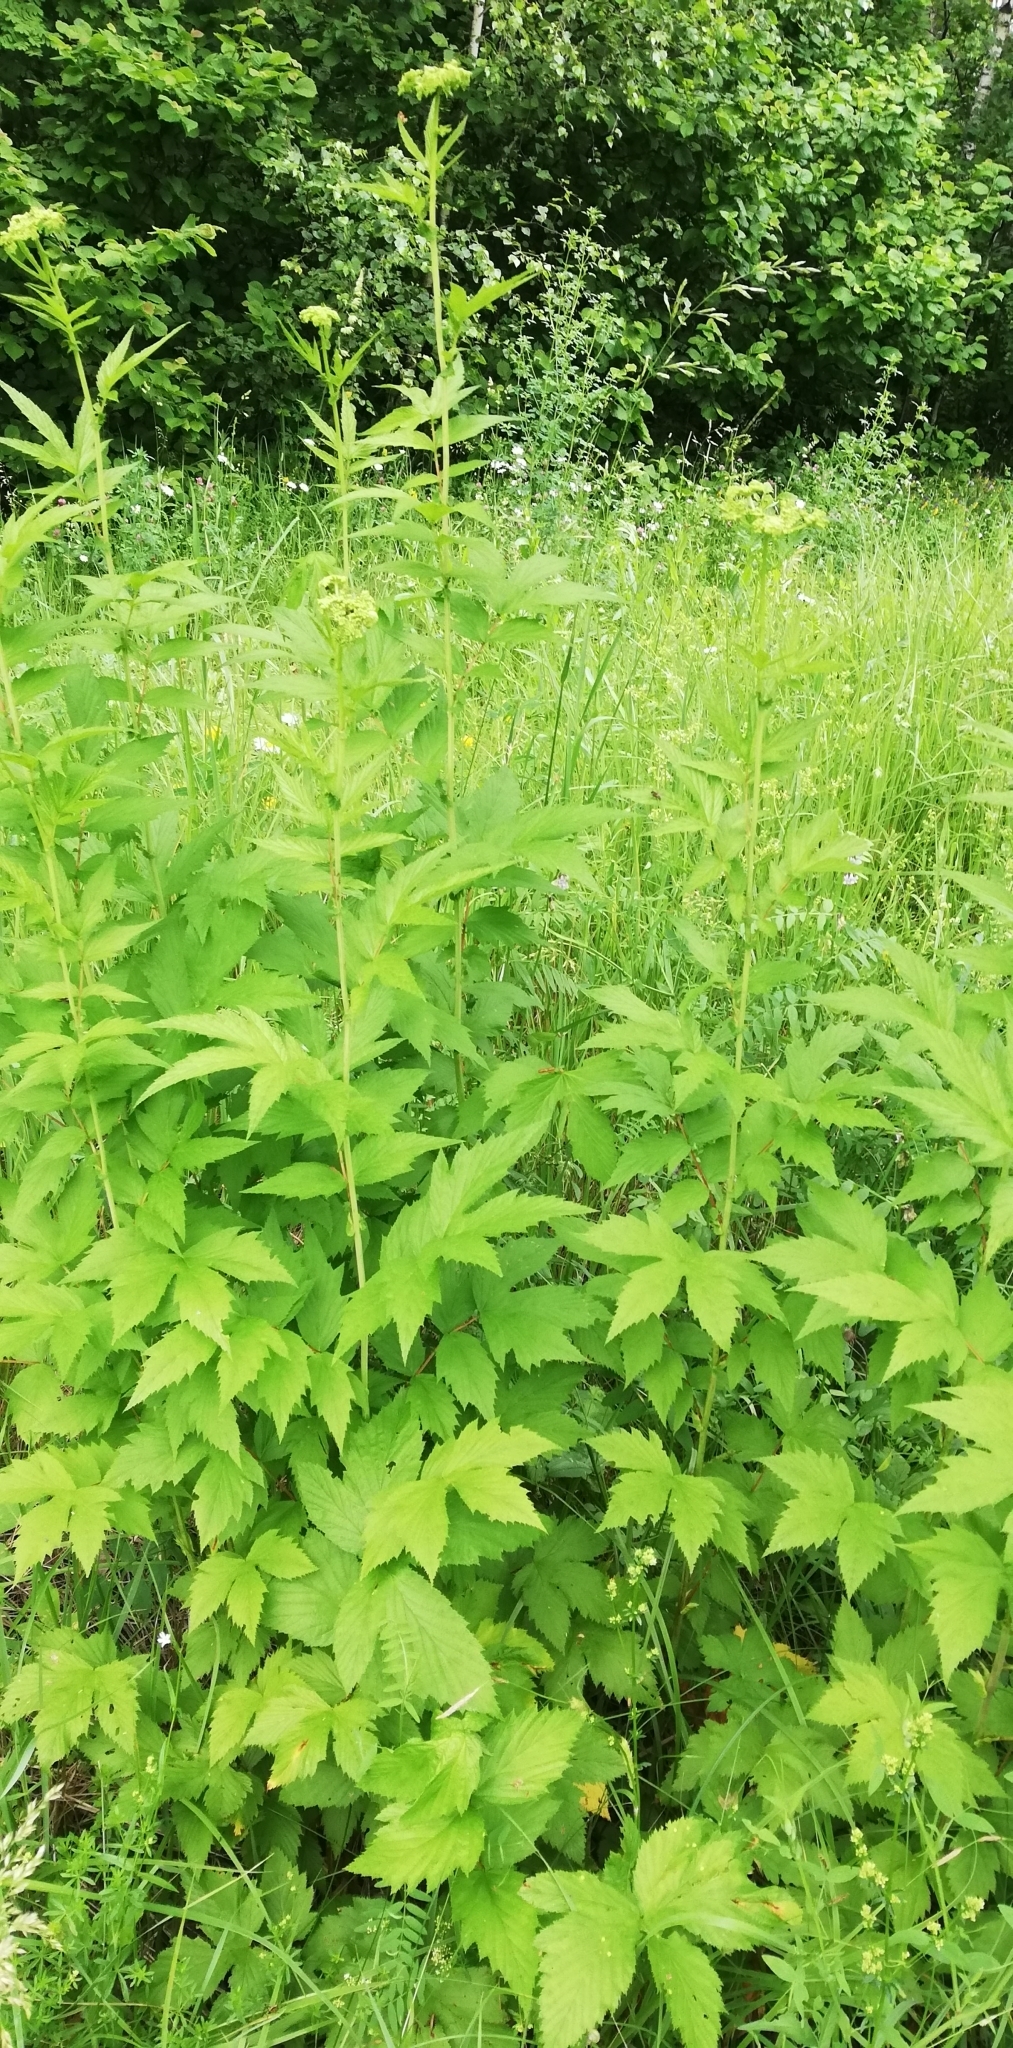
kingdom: Plantae
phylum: Tracheophyta
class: Magnoliopsida
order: Rosales
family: Rosaceae
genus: Filipendula
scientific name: Filipendula ulmaria
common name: Meadowsweet
